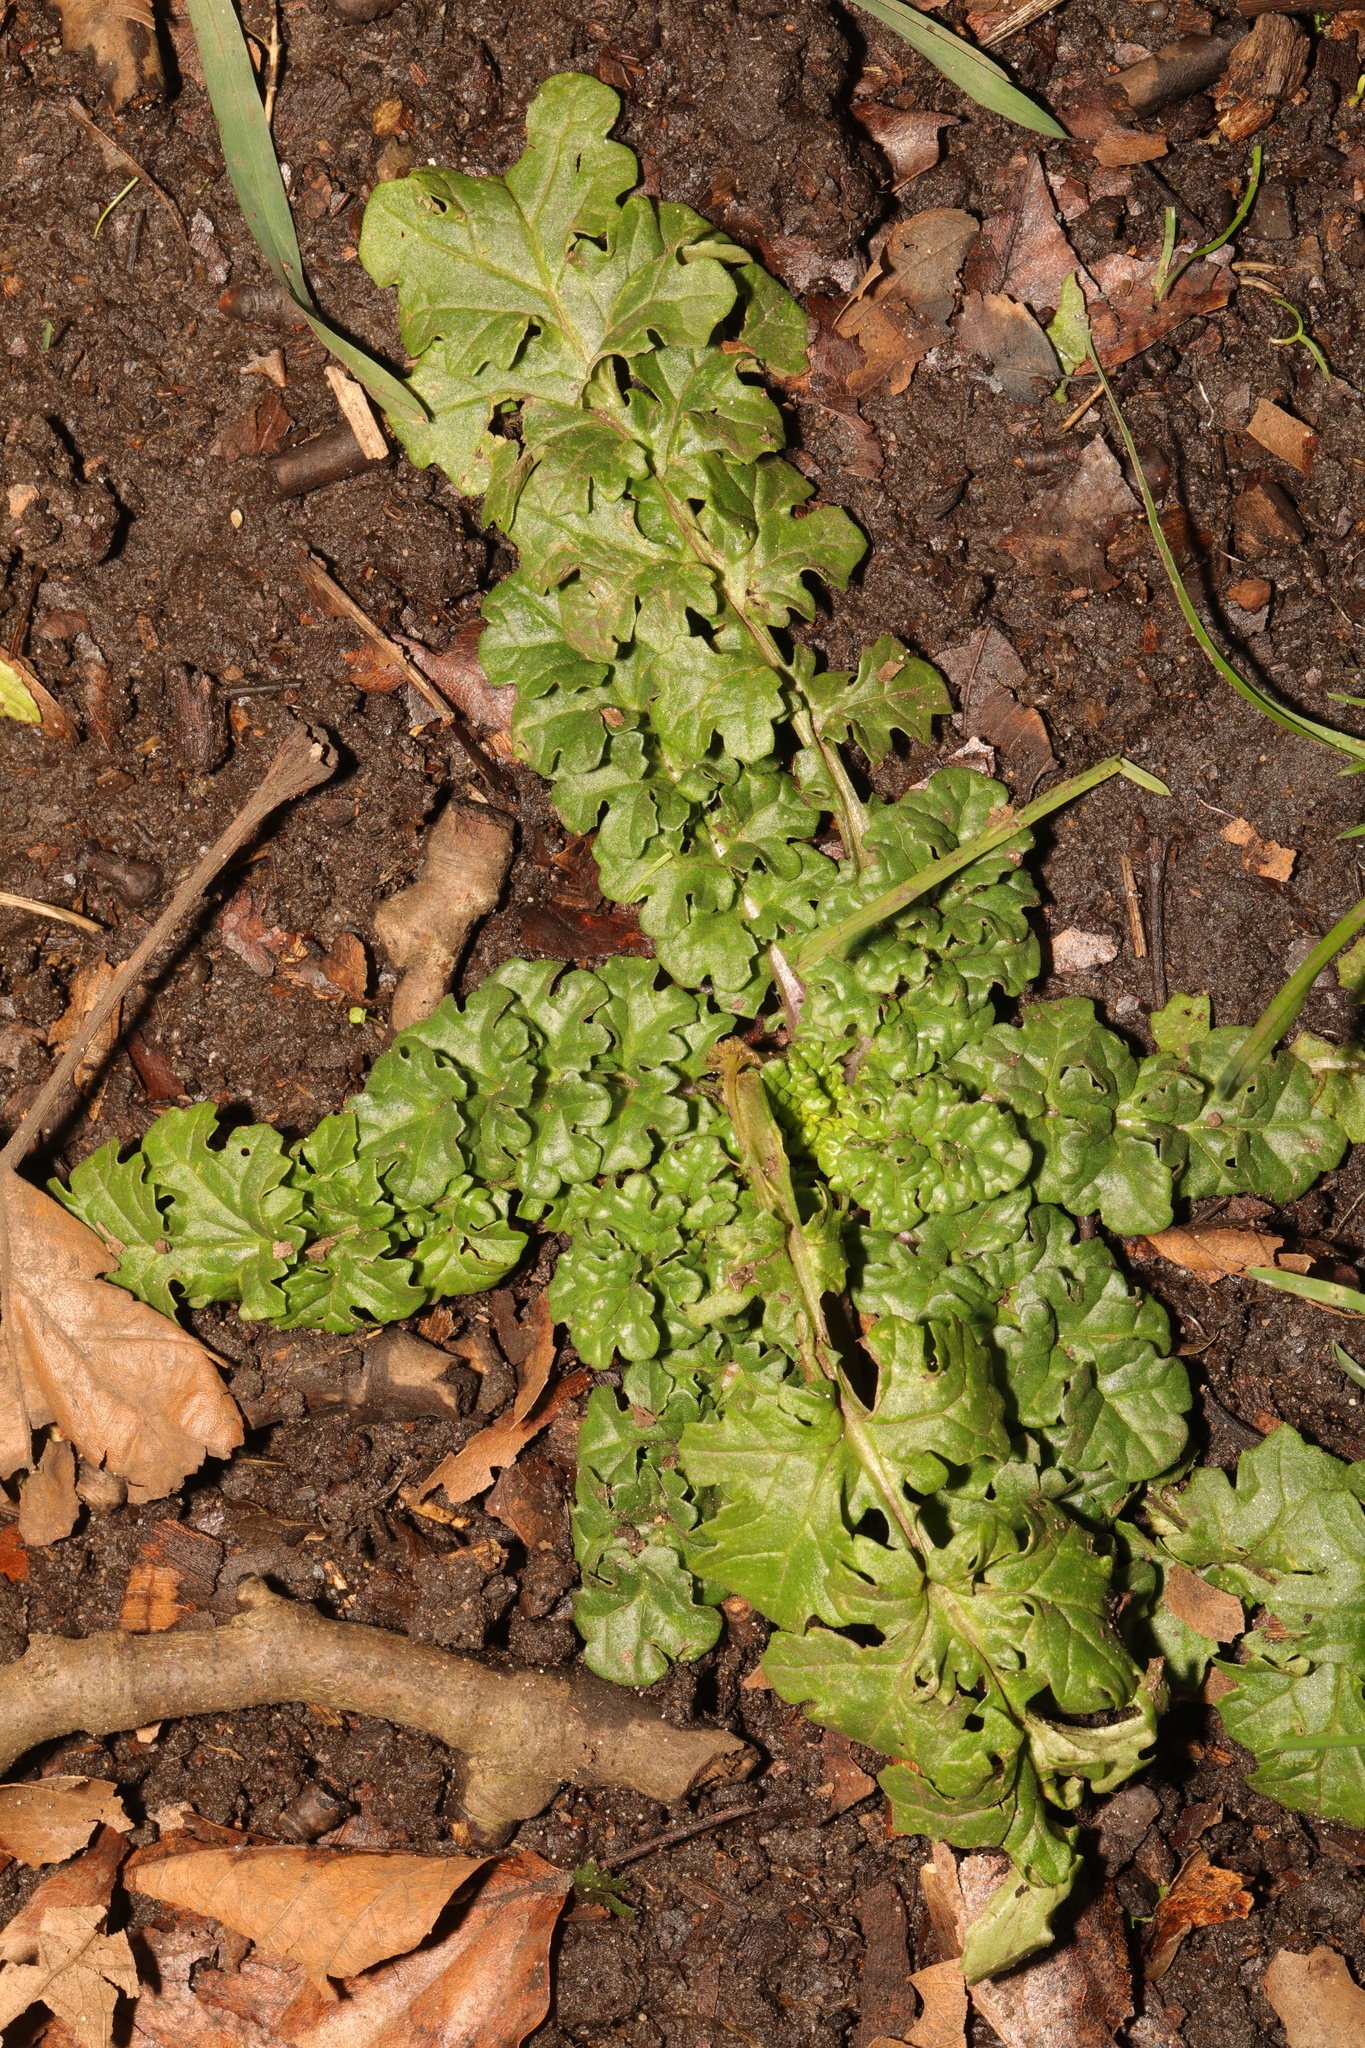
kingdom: Plantae
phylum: Tracheophyta
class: Magnoliopsida
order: Asterales
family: Asteraceae
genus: Jacobaea
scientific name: Jacobaea vulgaris
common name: Stinking willie
